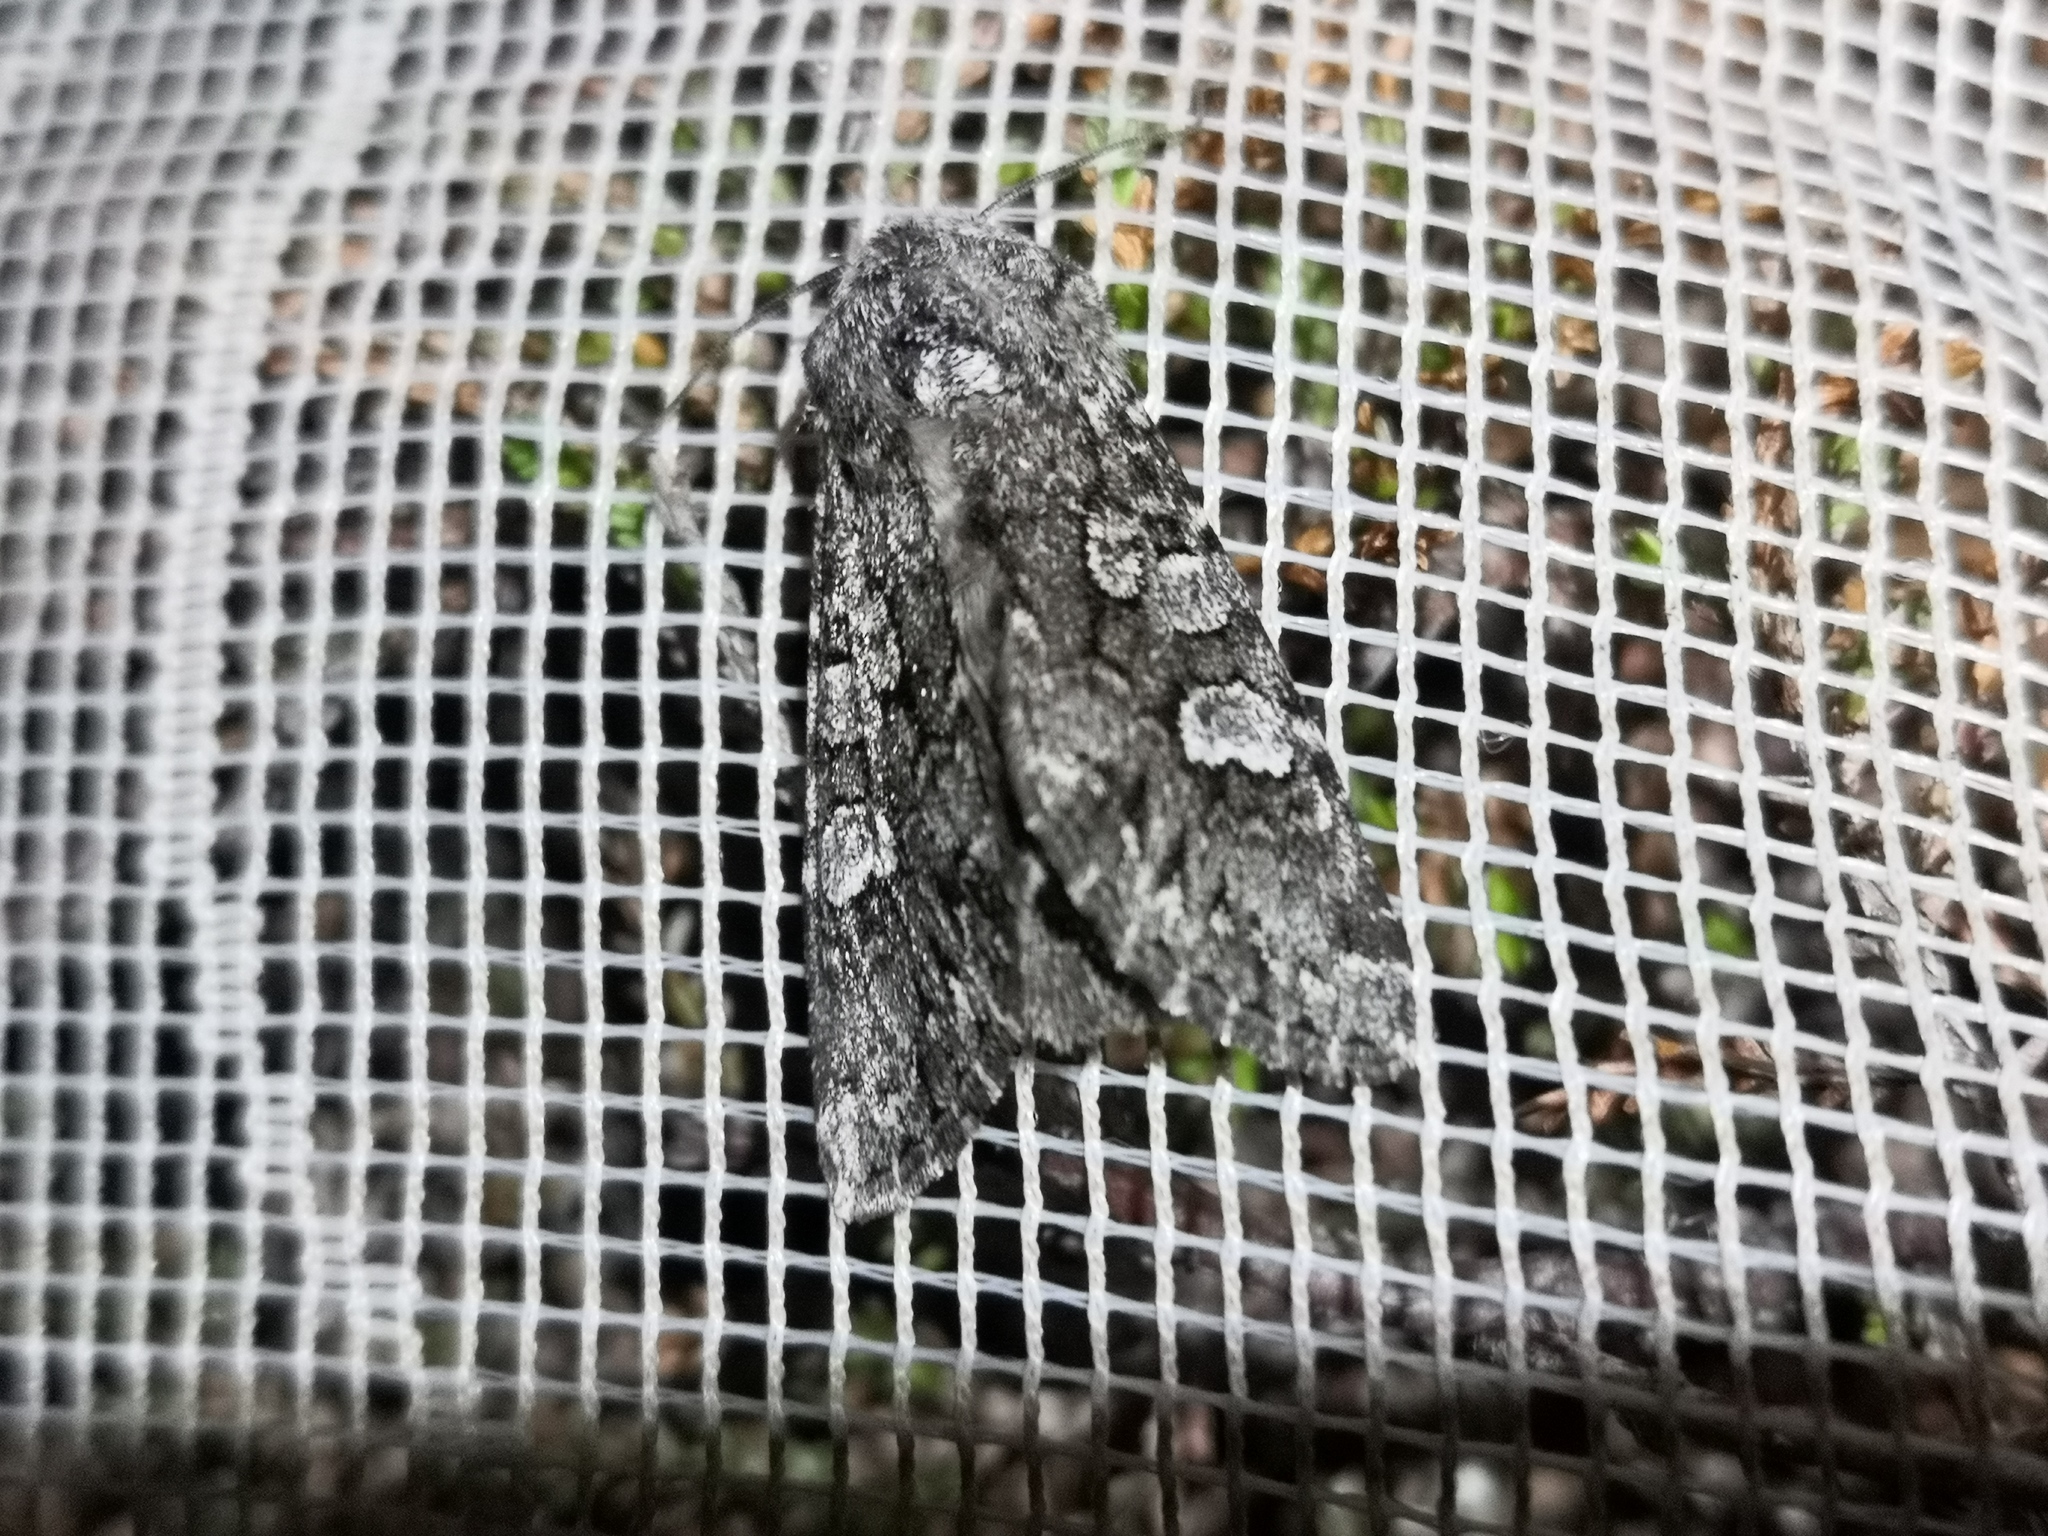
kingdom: Animalia
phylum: Arthropoda
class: Insecta
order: Lepidoptera
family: Noctuidae
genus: Papestra
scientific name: Papestra biren
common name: Glaucous shears
